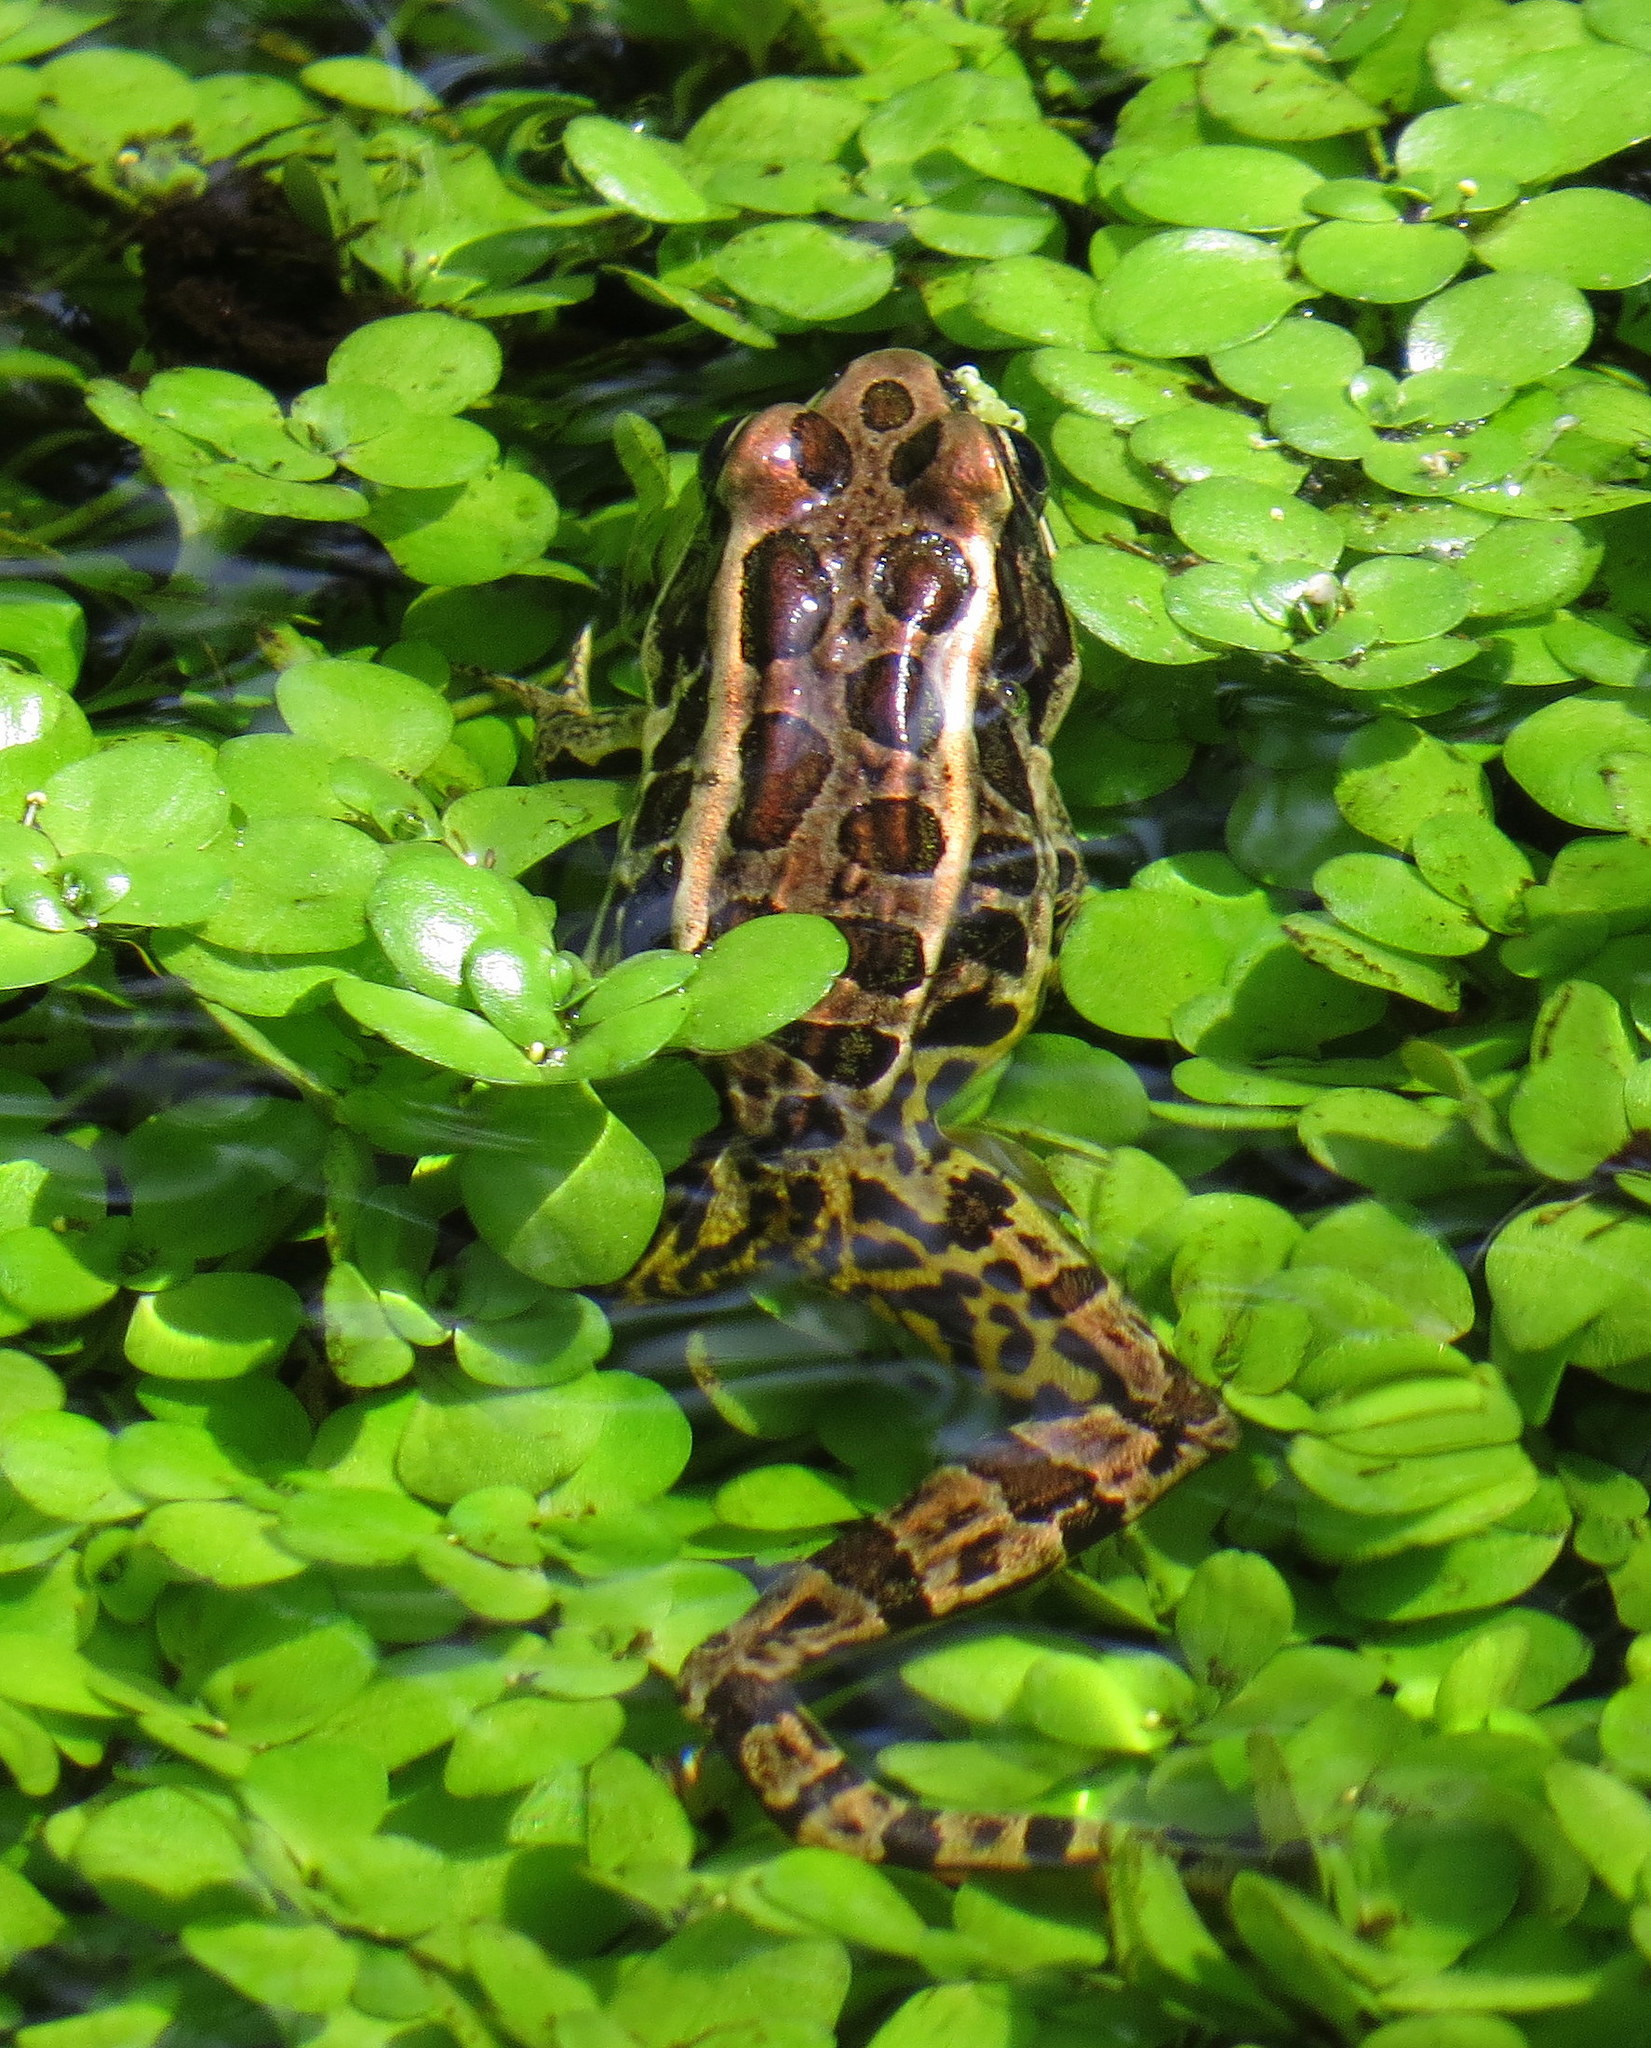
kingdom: Animalia
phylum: Chordata
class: Amphibia
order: Anura
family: Ranidae
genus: Lithobates
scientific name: Lithobates palustris
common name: Pickerel frog
